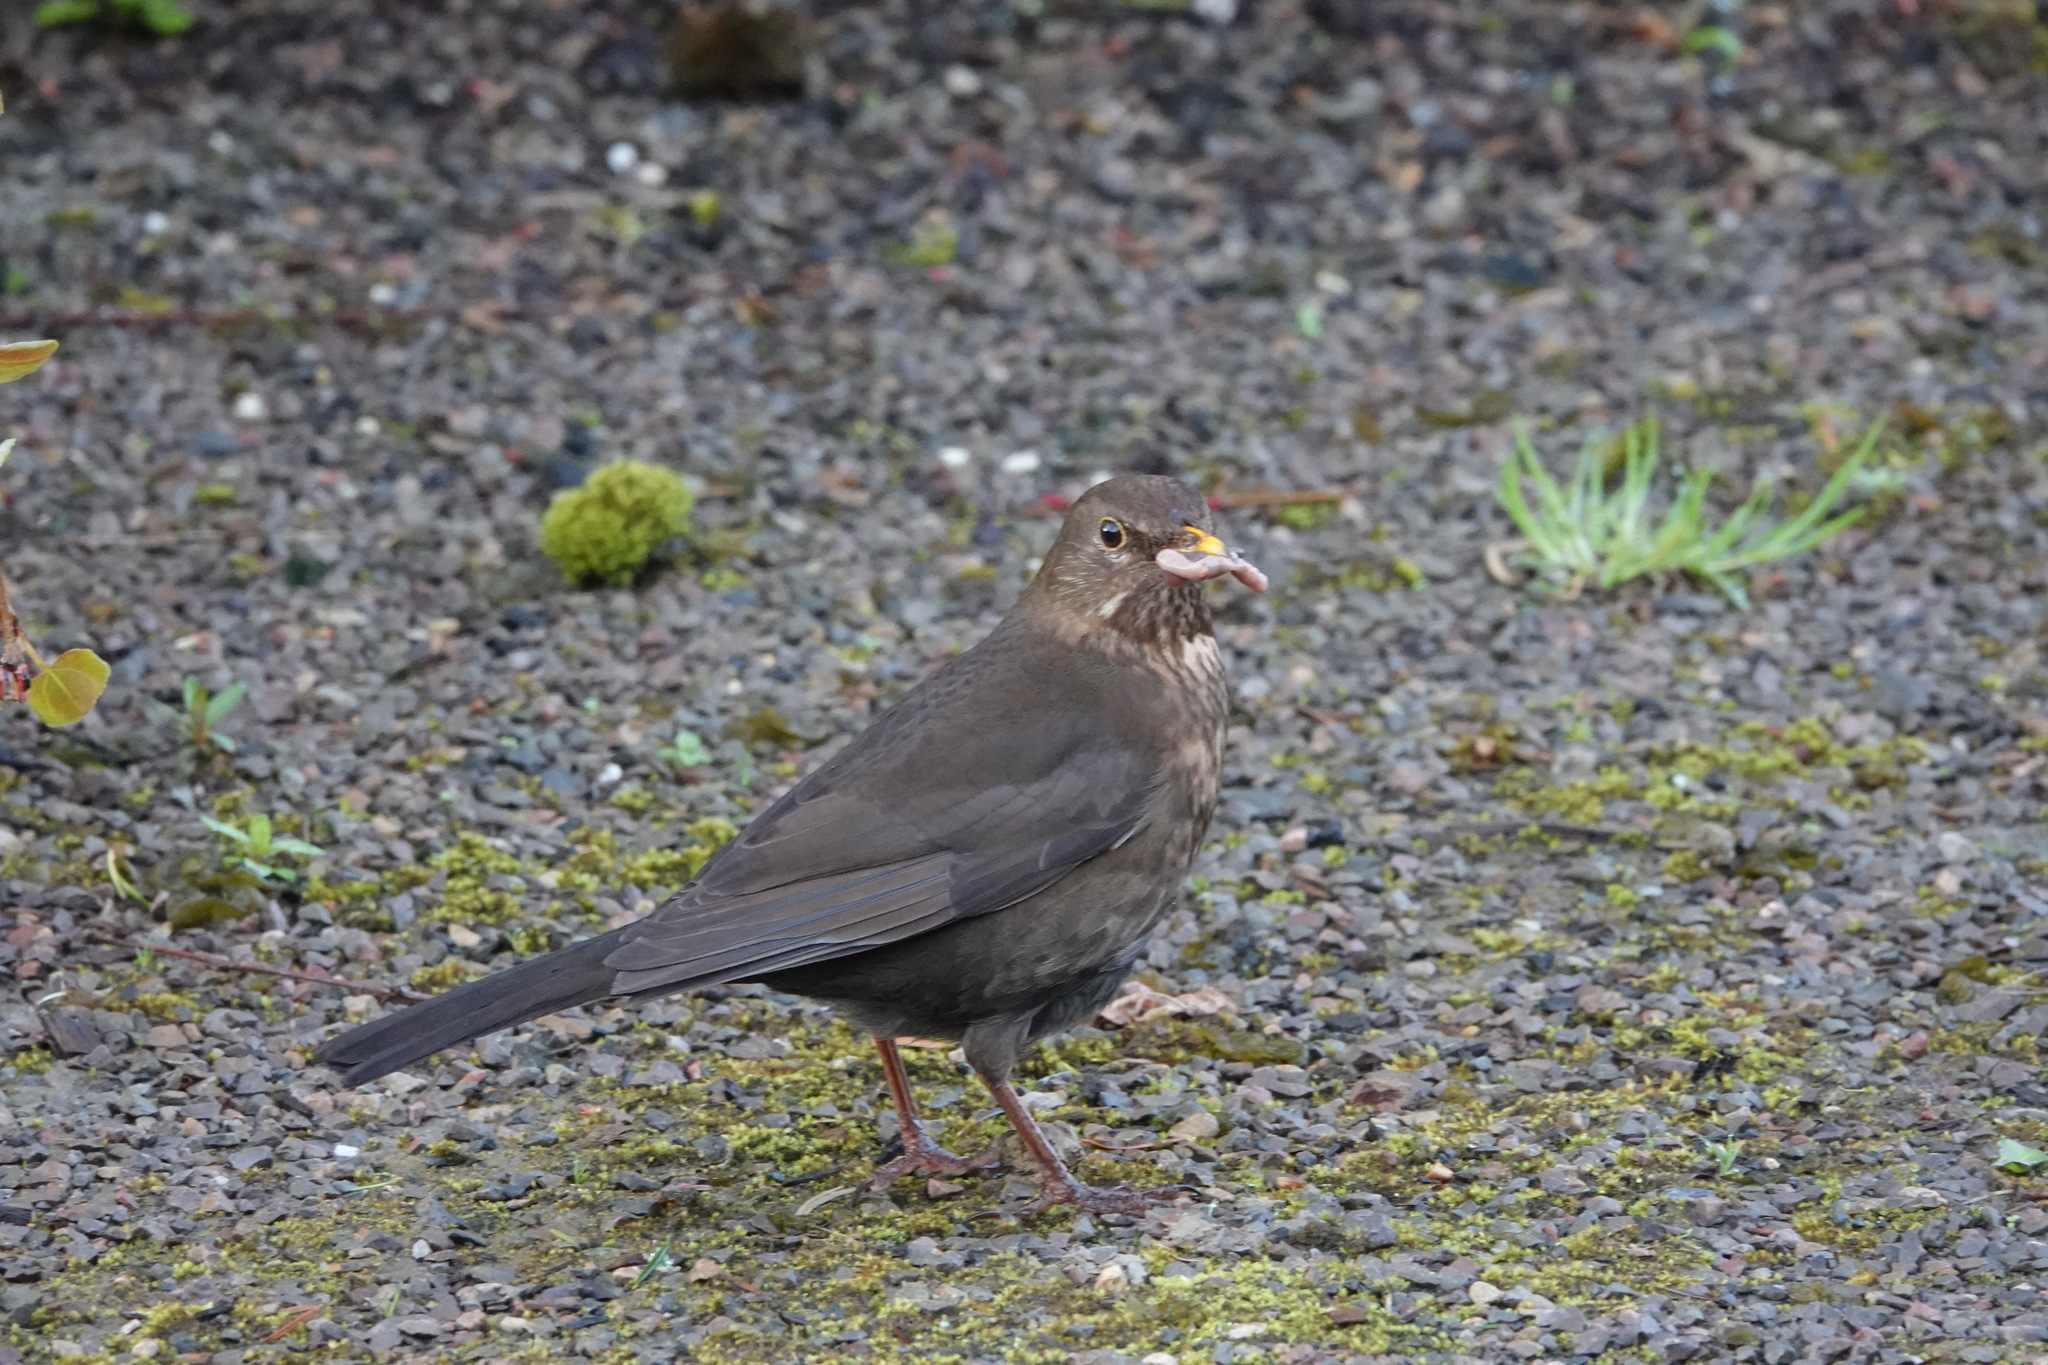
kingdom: Animalia
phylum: Chordata
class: Aves
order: Passeriformes
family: Turdidae
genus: Turdus
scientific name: Turdus merula
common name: Common blackbird
